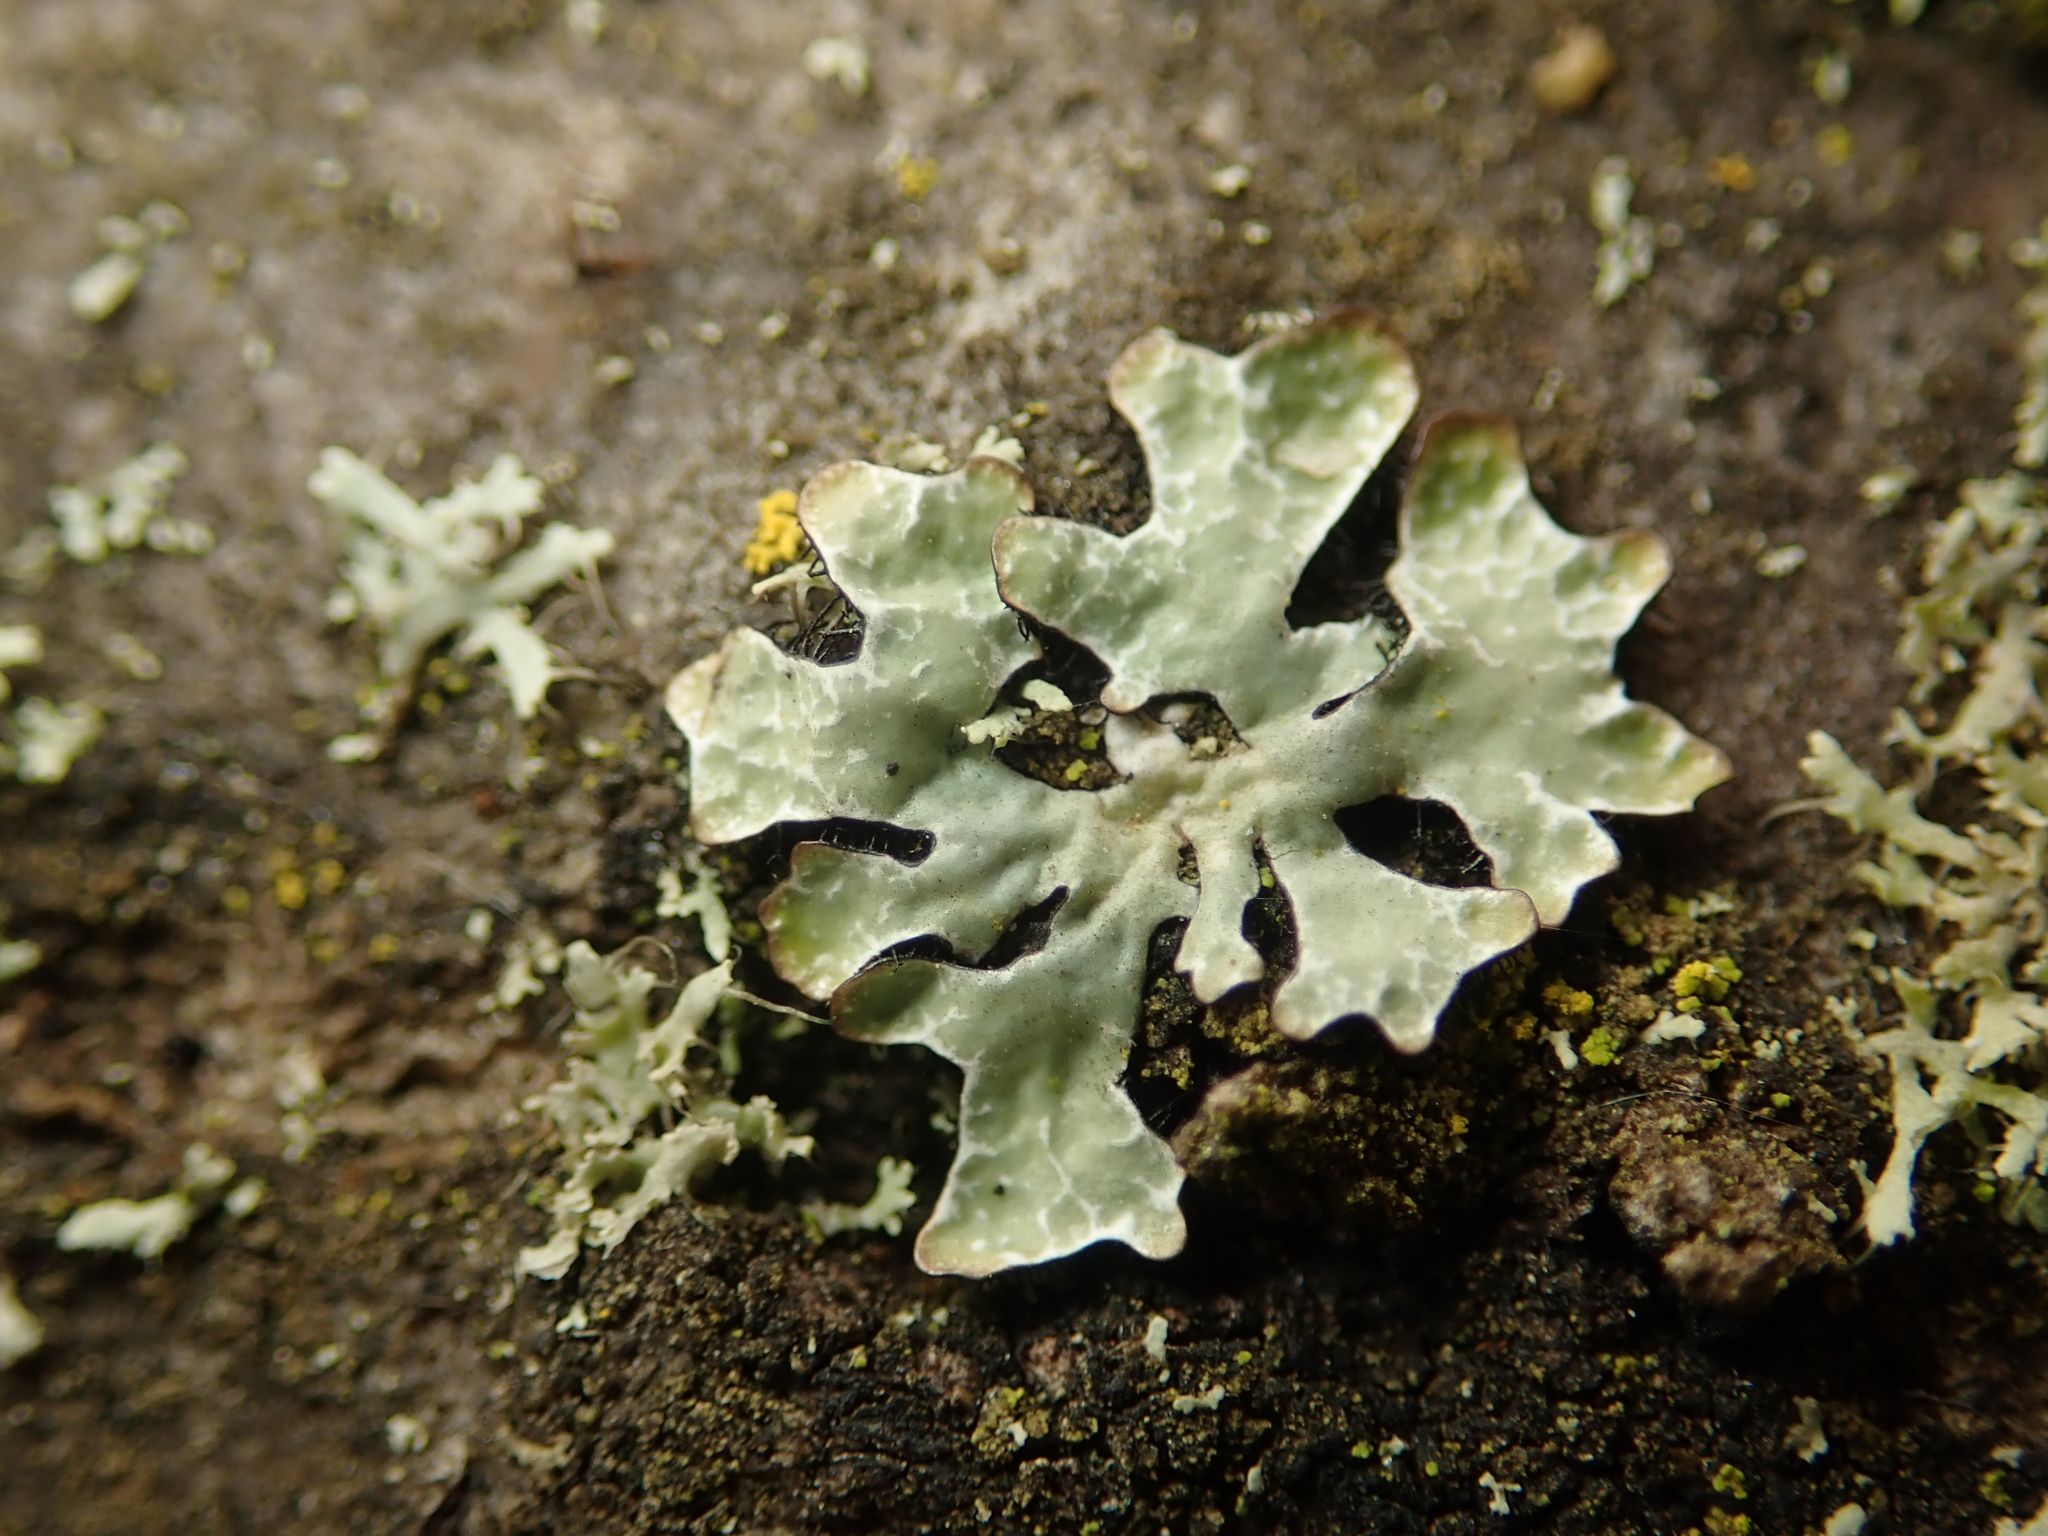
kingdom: Fungi
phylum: Ascomycota
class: Lecanoromycetes
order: Lecanorales
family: Parmeliaceae
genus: Parmelia
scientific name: Parmelia sulcata
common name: Netted shield lichen
